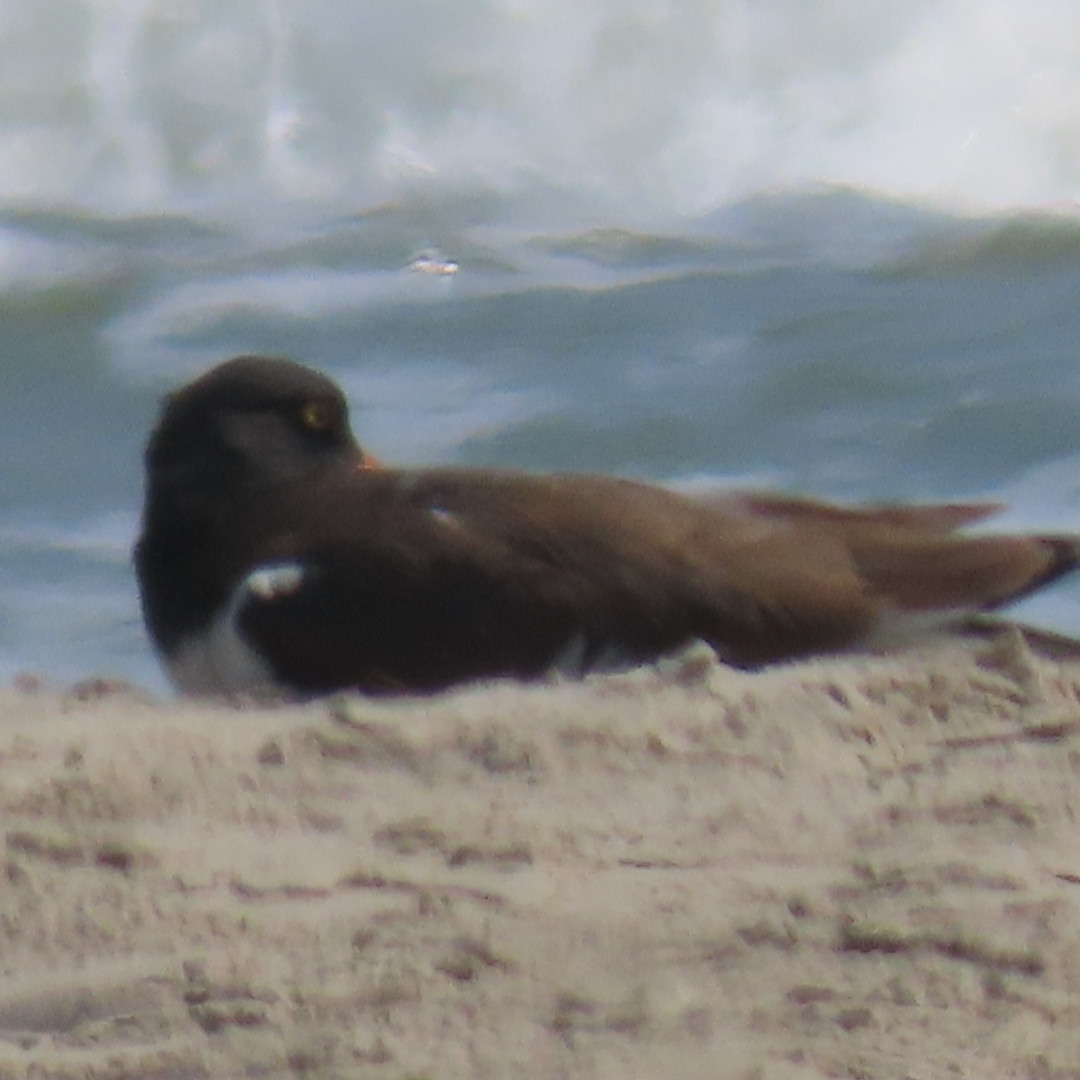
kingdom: Animalia
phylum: Chordata
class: Aves
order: Charadriiformes
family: Haematopodidae
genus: Haematopus
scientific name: Haematopus palliatus
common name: American oystercatcher
